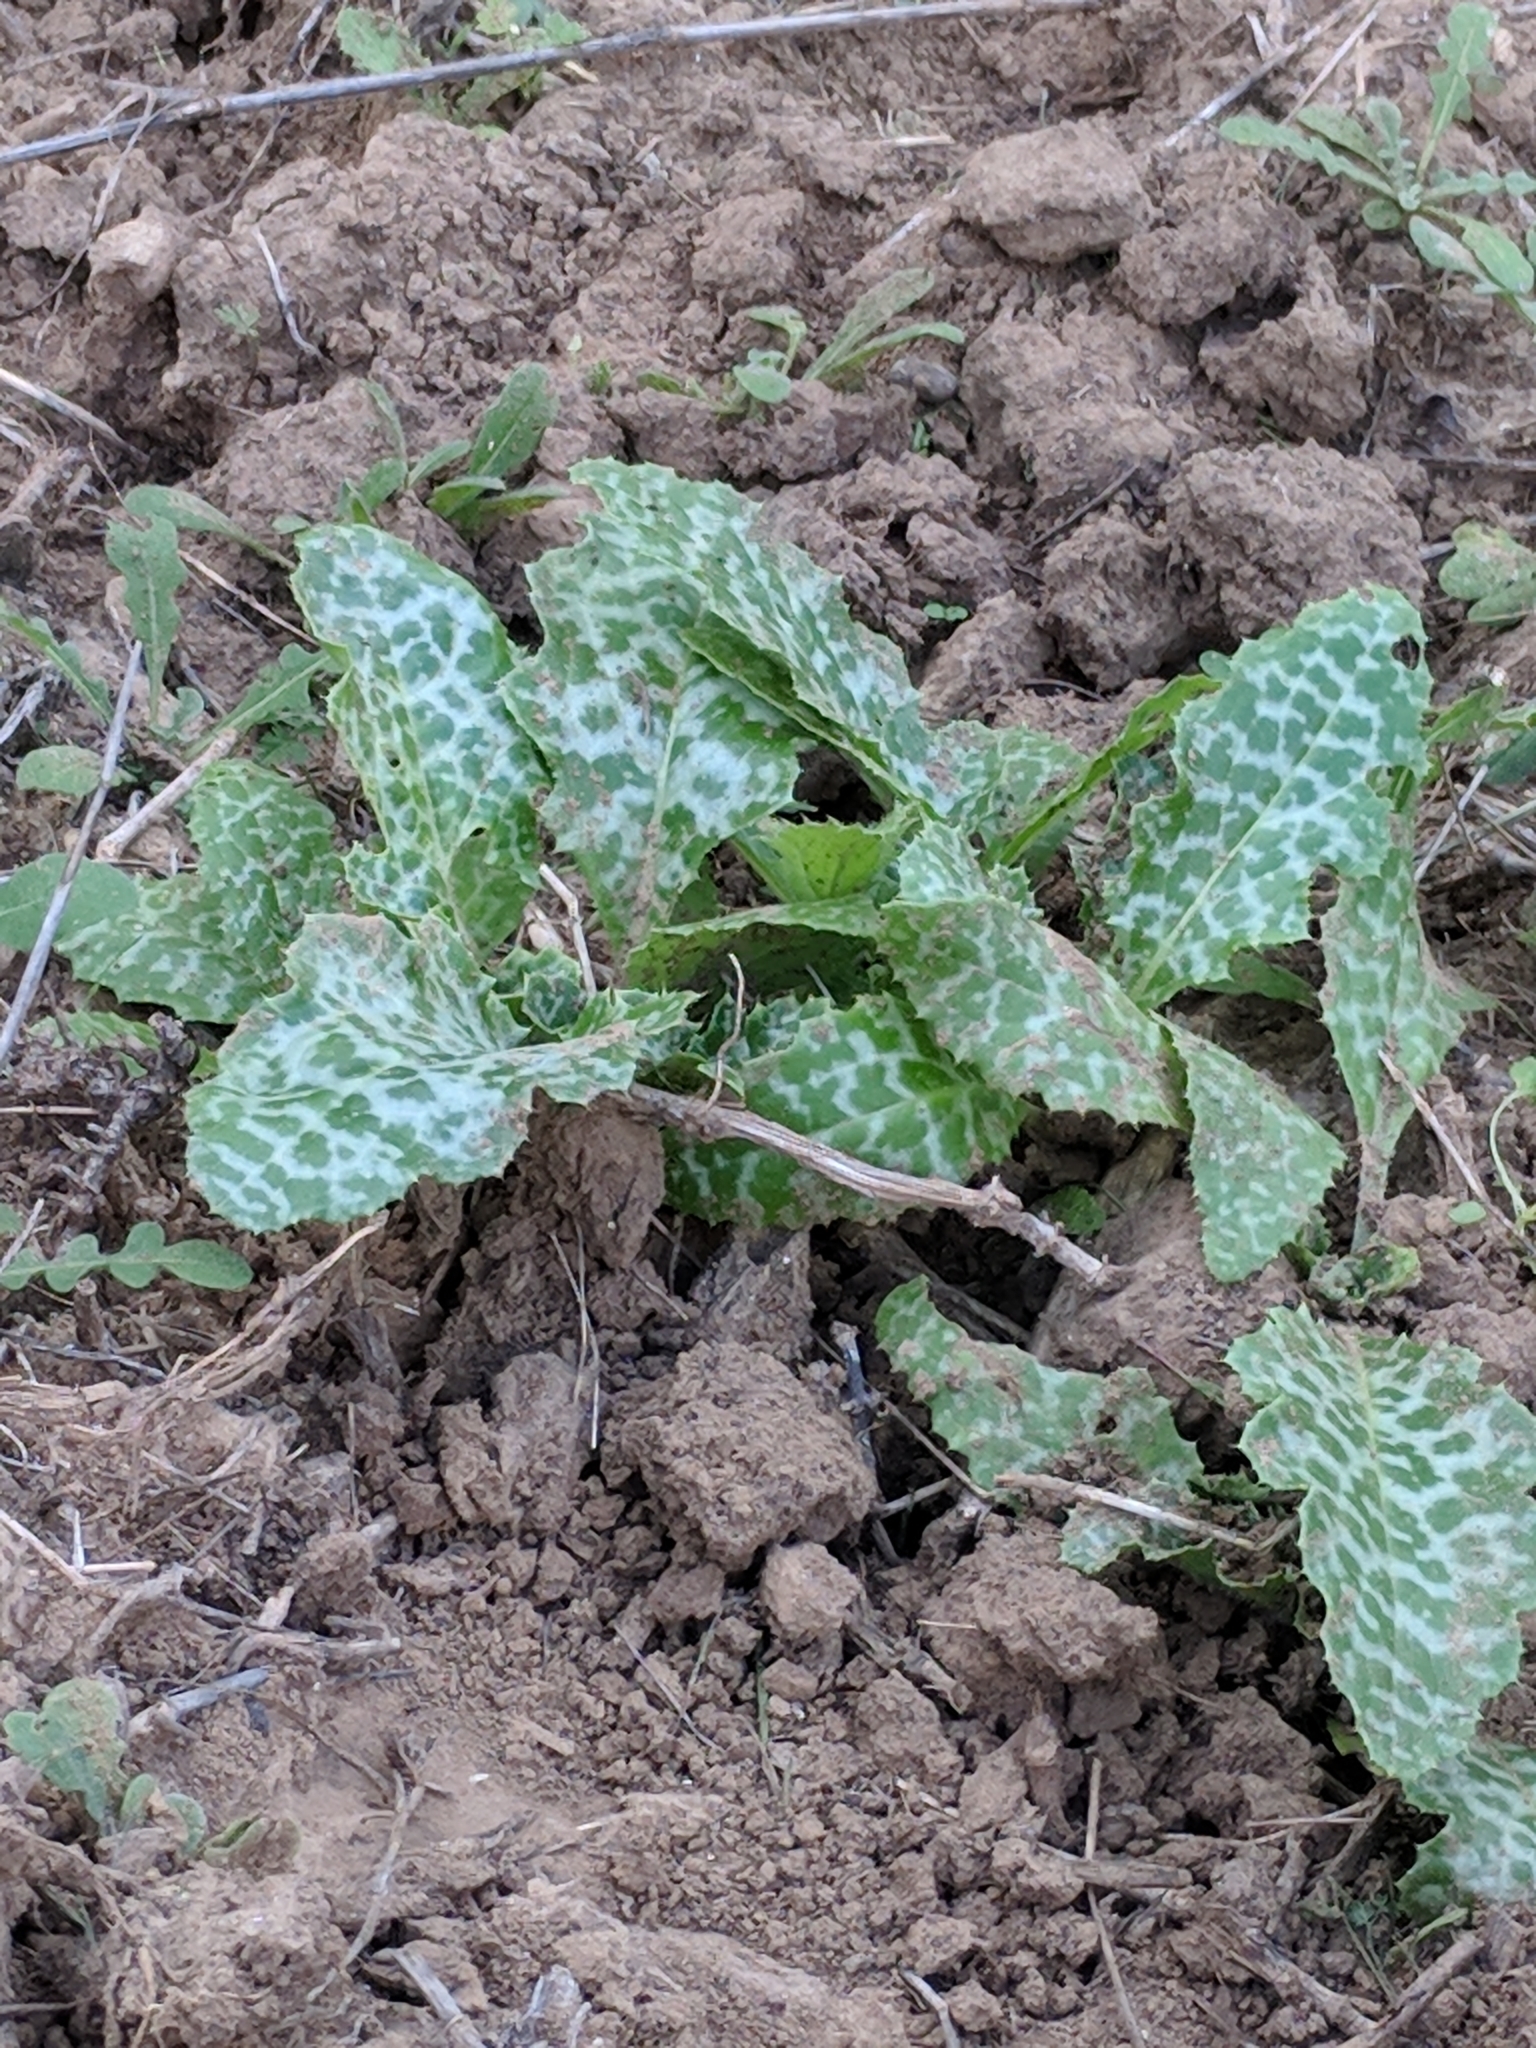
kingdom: Plantae
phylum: Tracheophyta
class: Magnoliopsida
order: Asterales
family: Asteraceae
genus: Silybum
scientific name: Silybum marianum
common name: Milk thistle
